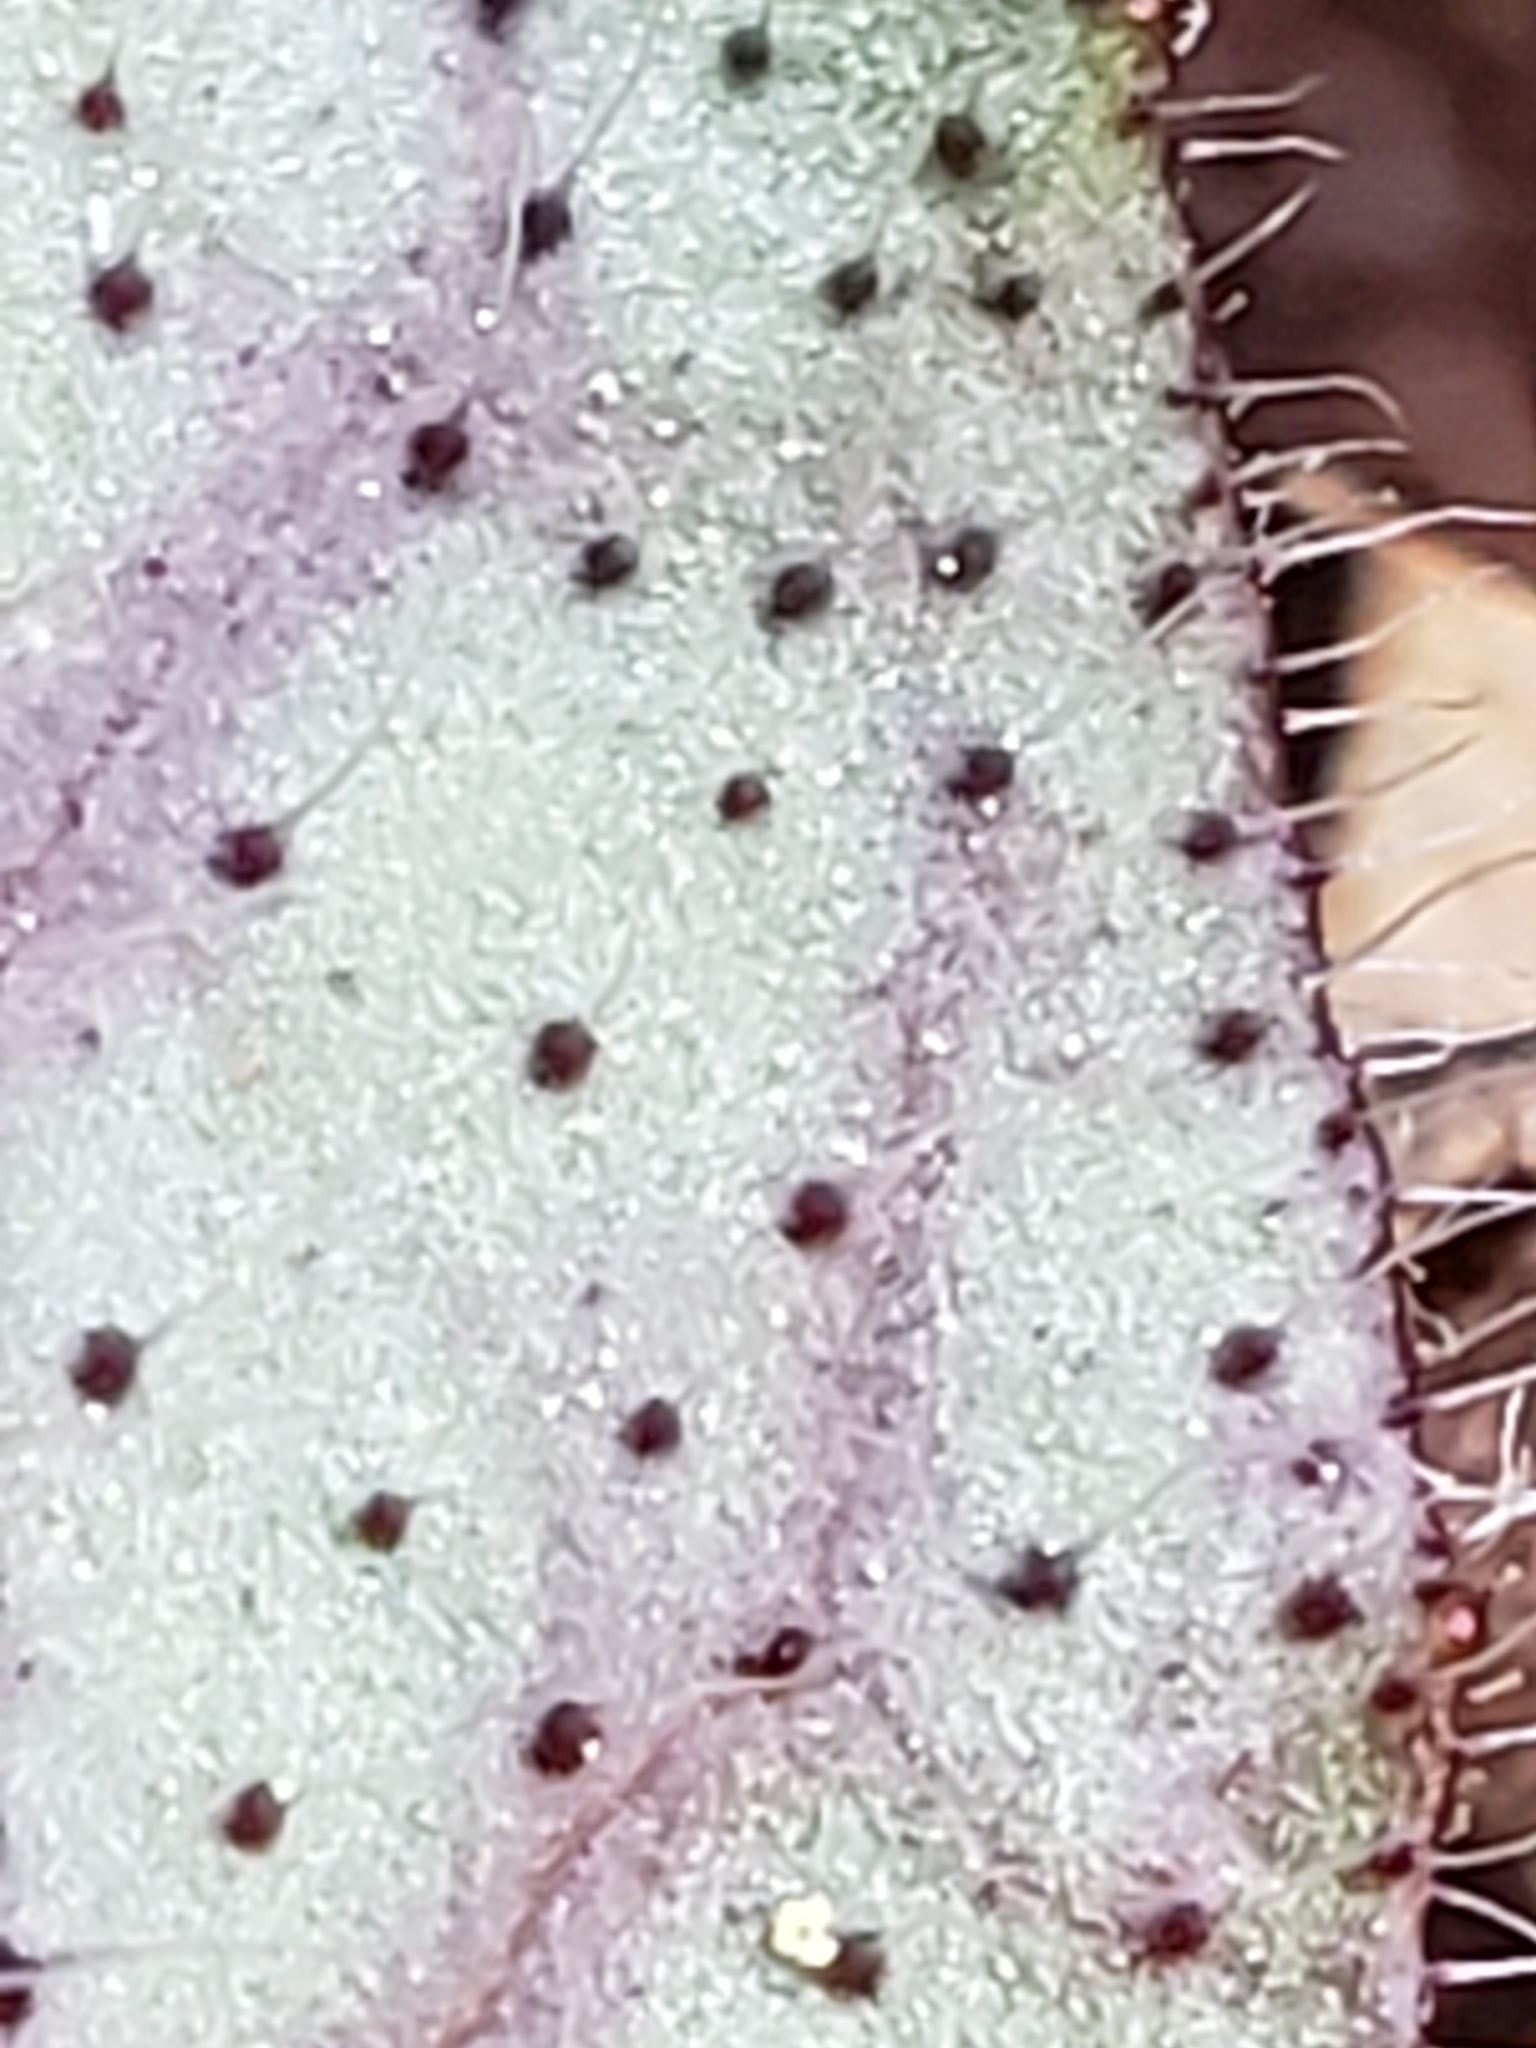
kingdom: Plantae
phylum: Tracheophyta
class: Magnoliopsida
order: Asterales
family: Asteraceae
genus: Hieracium
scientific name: Hieracium venosum
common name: Rattlesnake hawkweed
